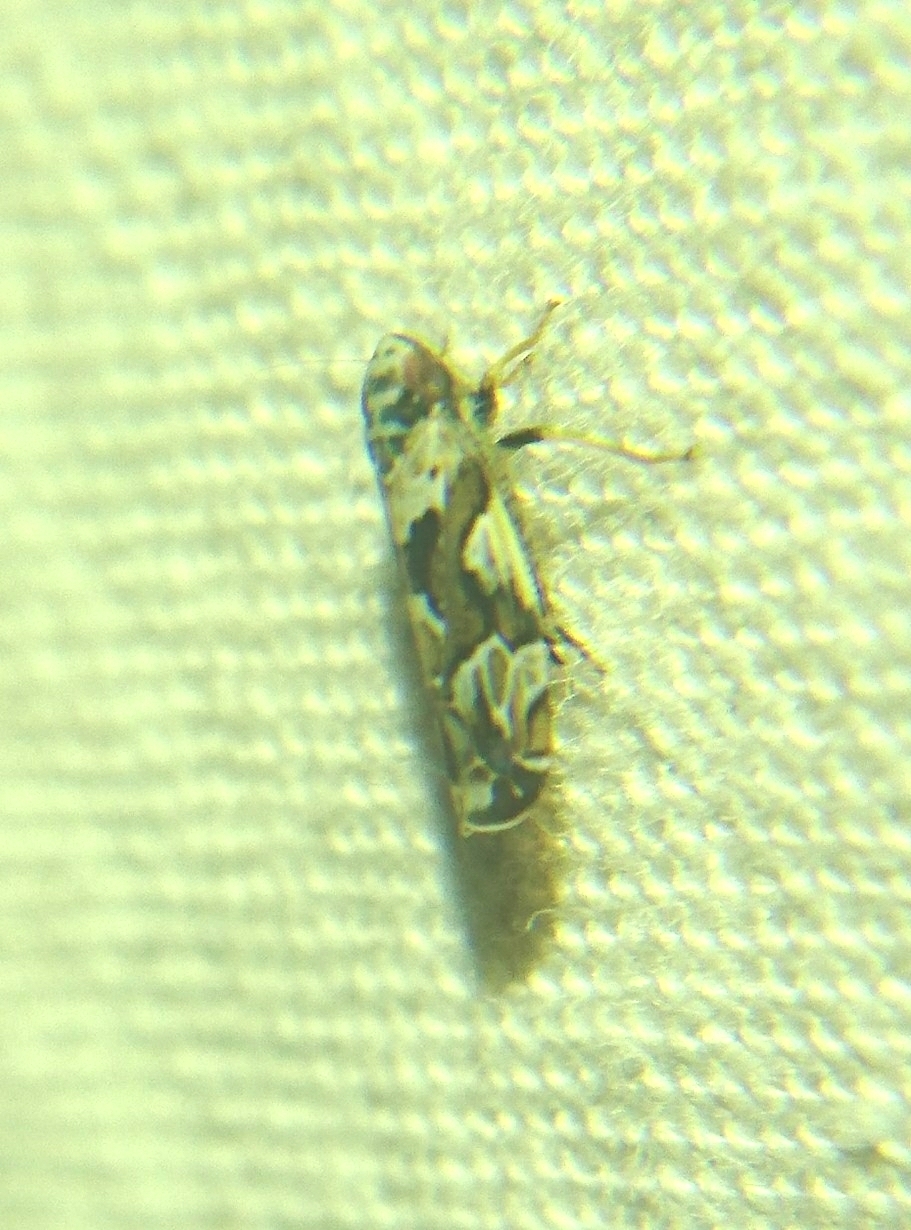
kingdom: Animalia
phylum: Arthropoda
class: Insecta
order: Hemiptera
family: Cicadellidae
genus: Sanctanus
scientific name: Sanctanus cruciatus
